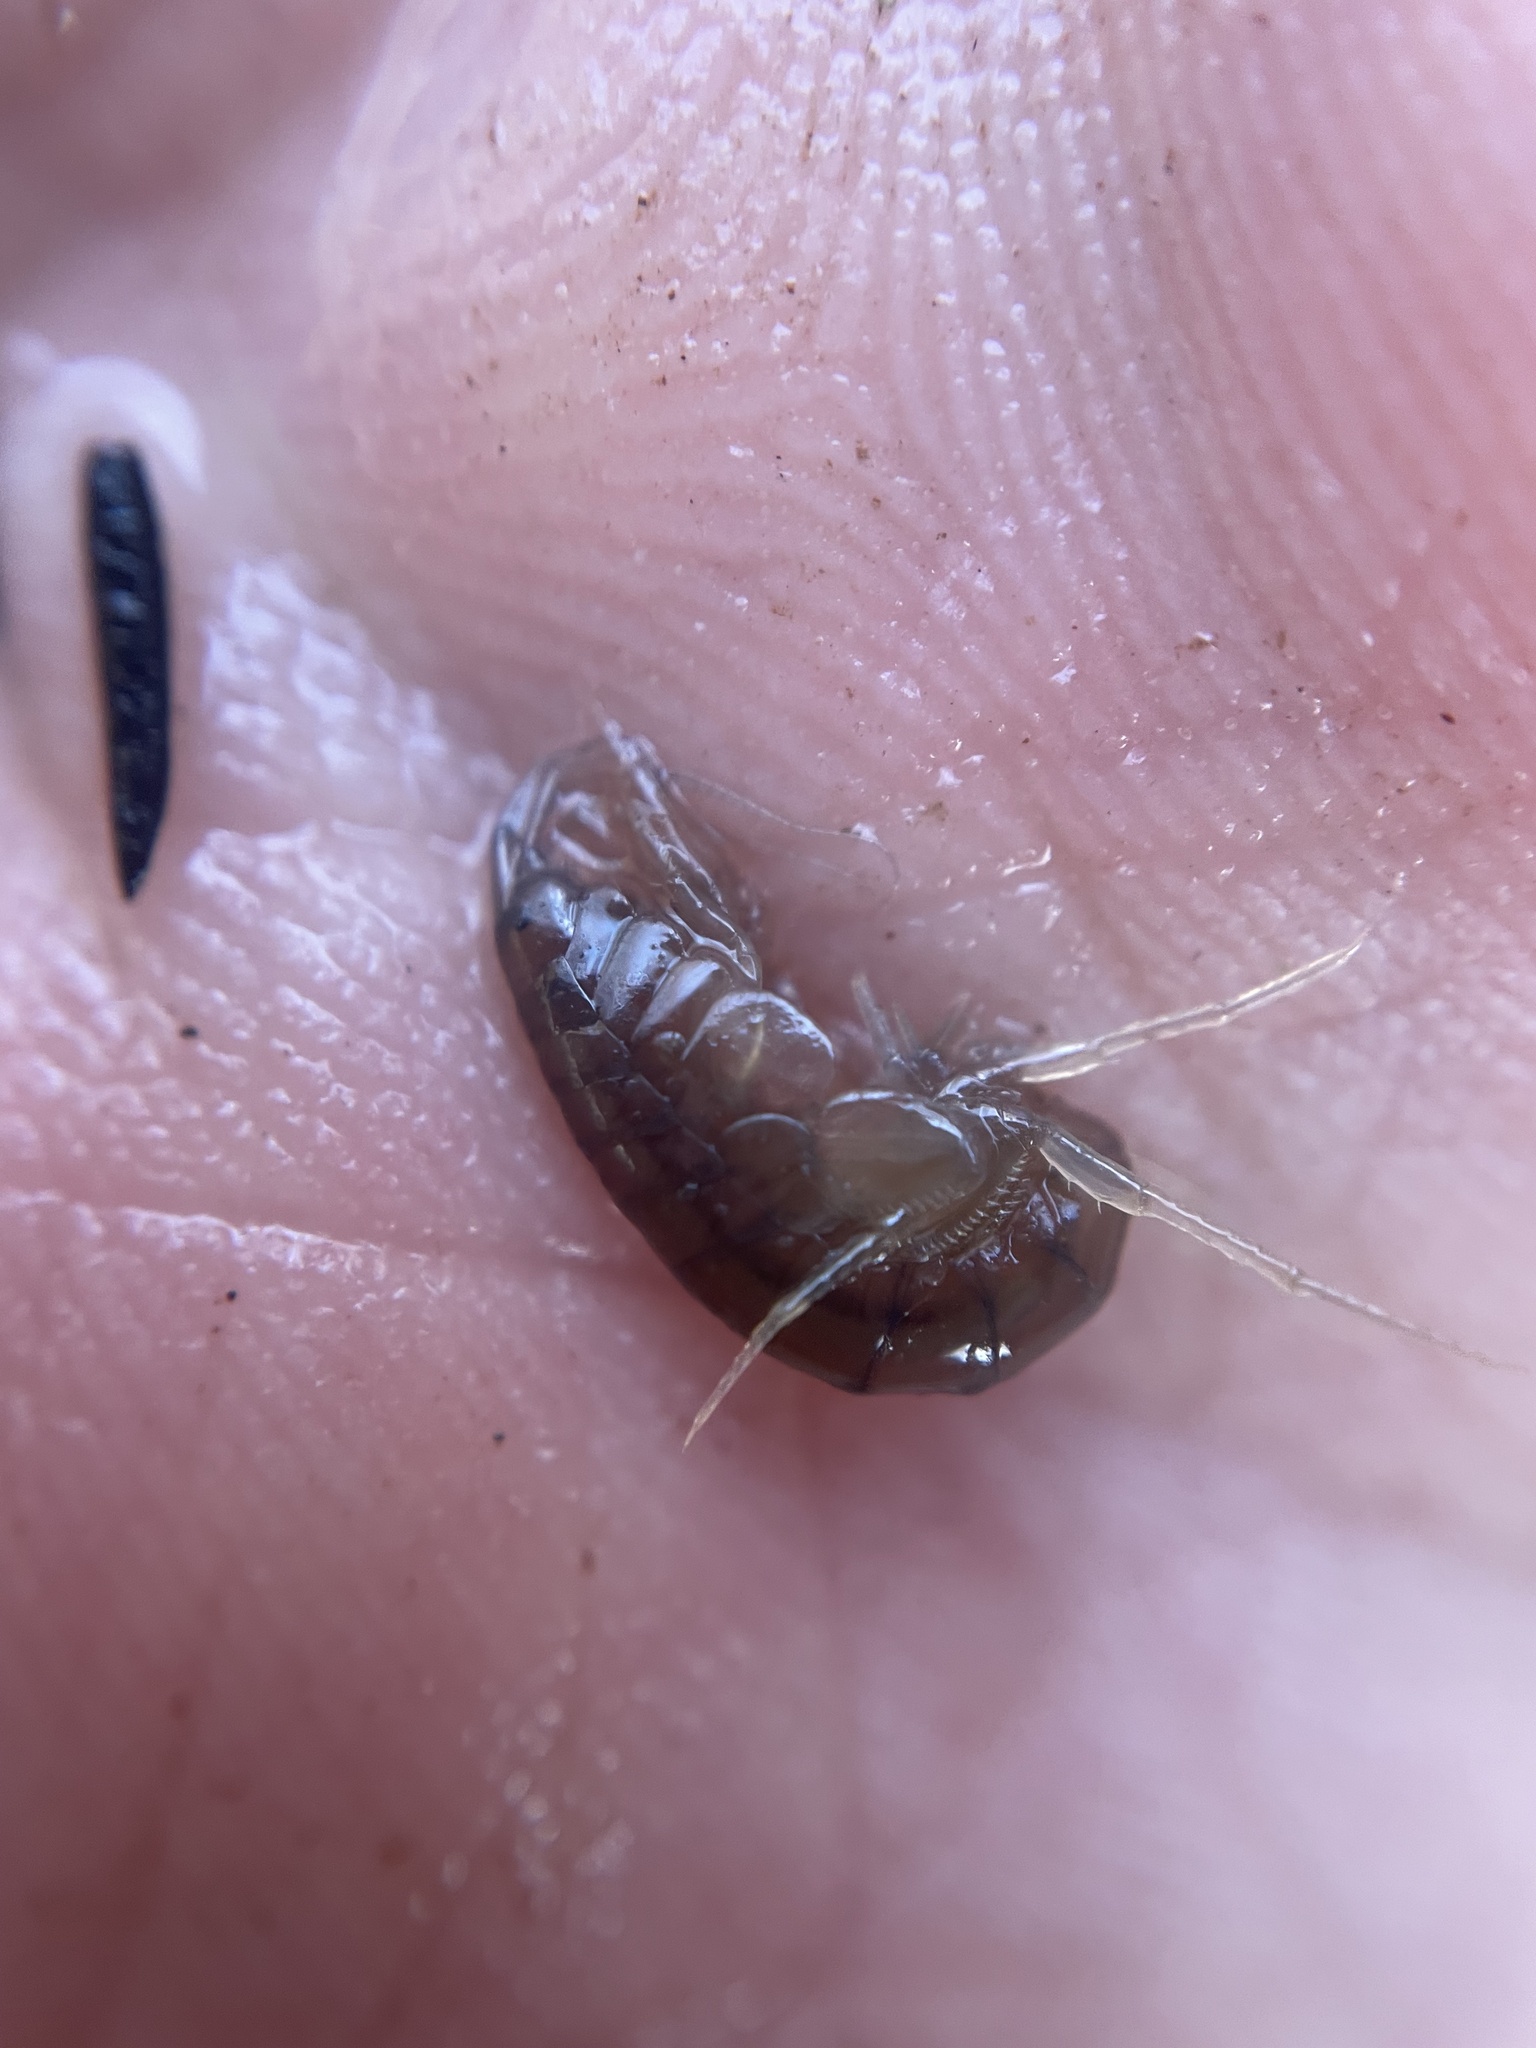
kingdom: Animalia
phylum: Arthropoda
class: Malacostraca
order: Amphipoda
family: Crangonyctidae
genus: Crangonyx
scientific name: Crangonyx serratus
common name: Serrate crangonyctid
